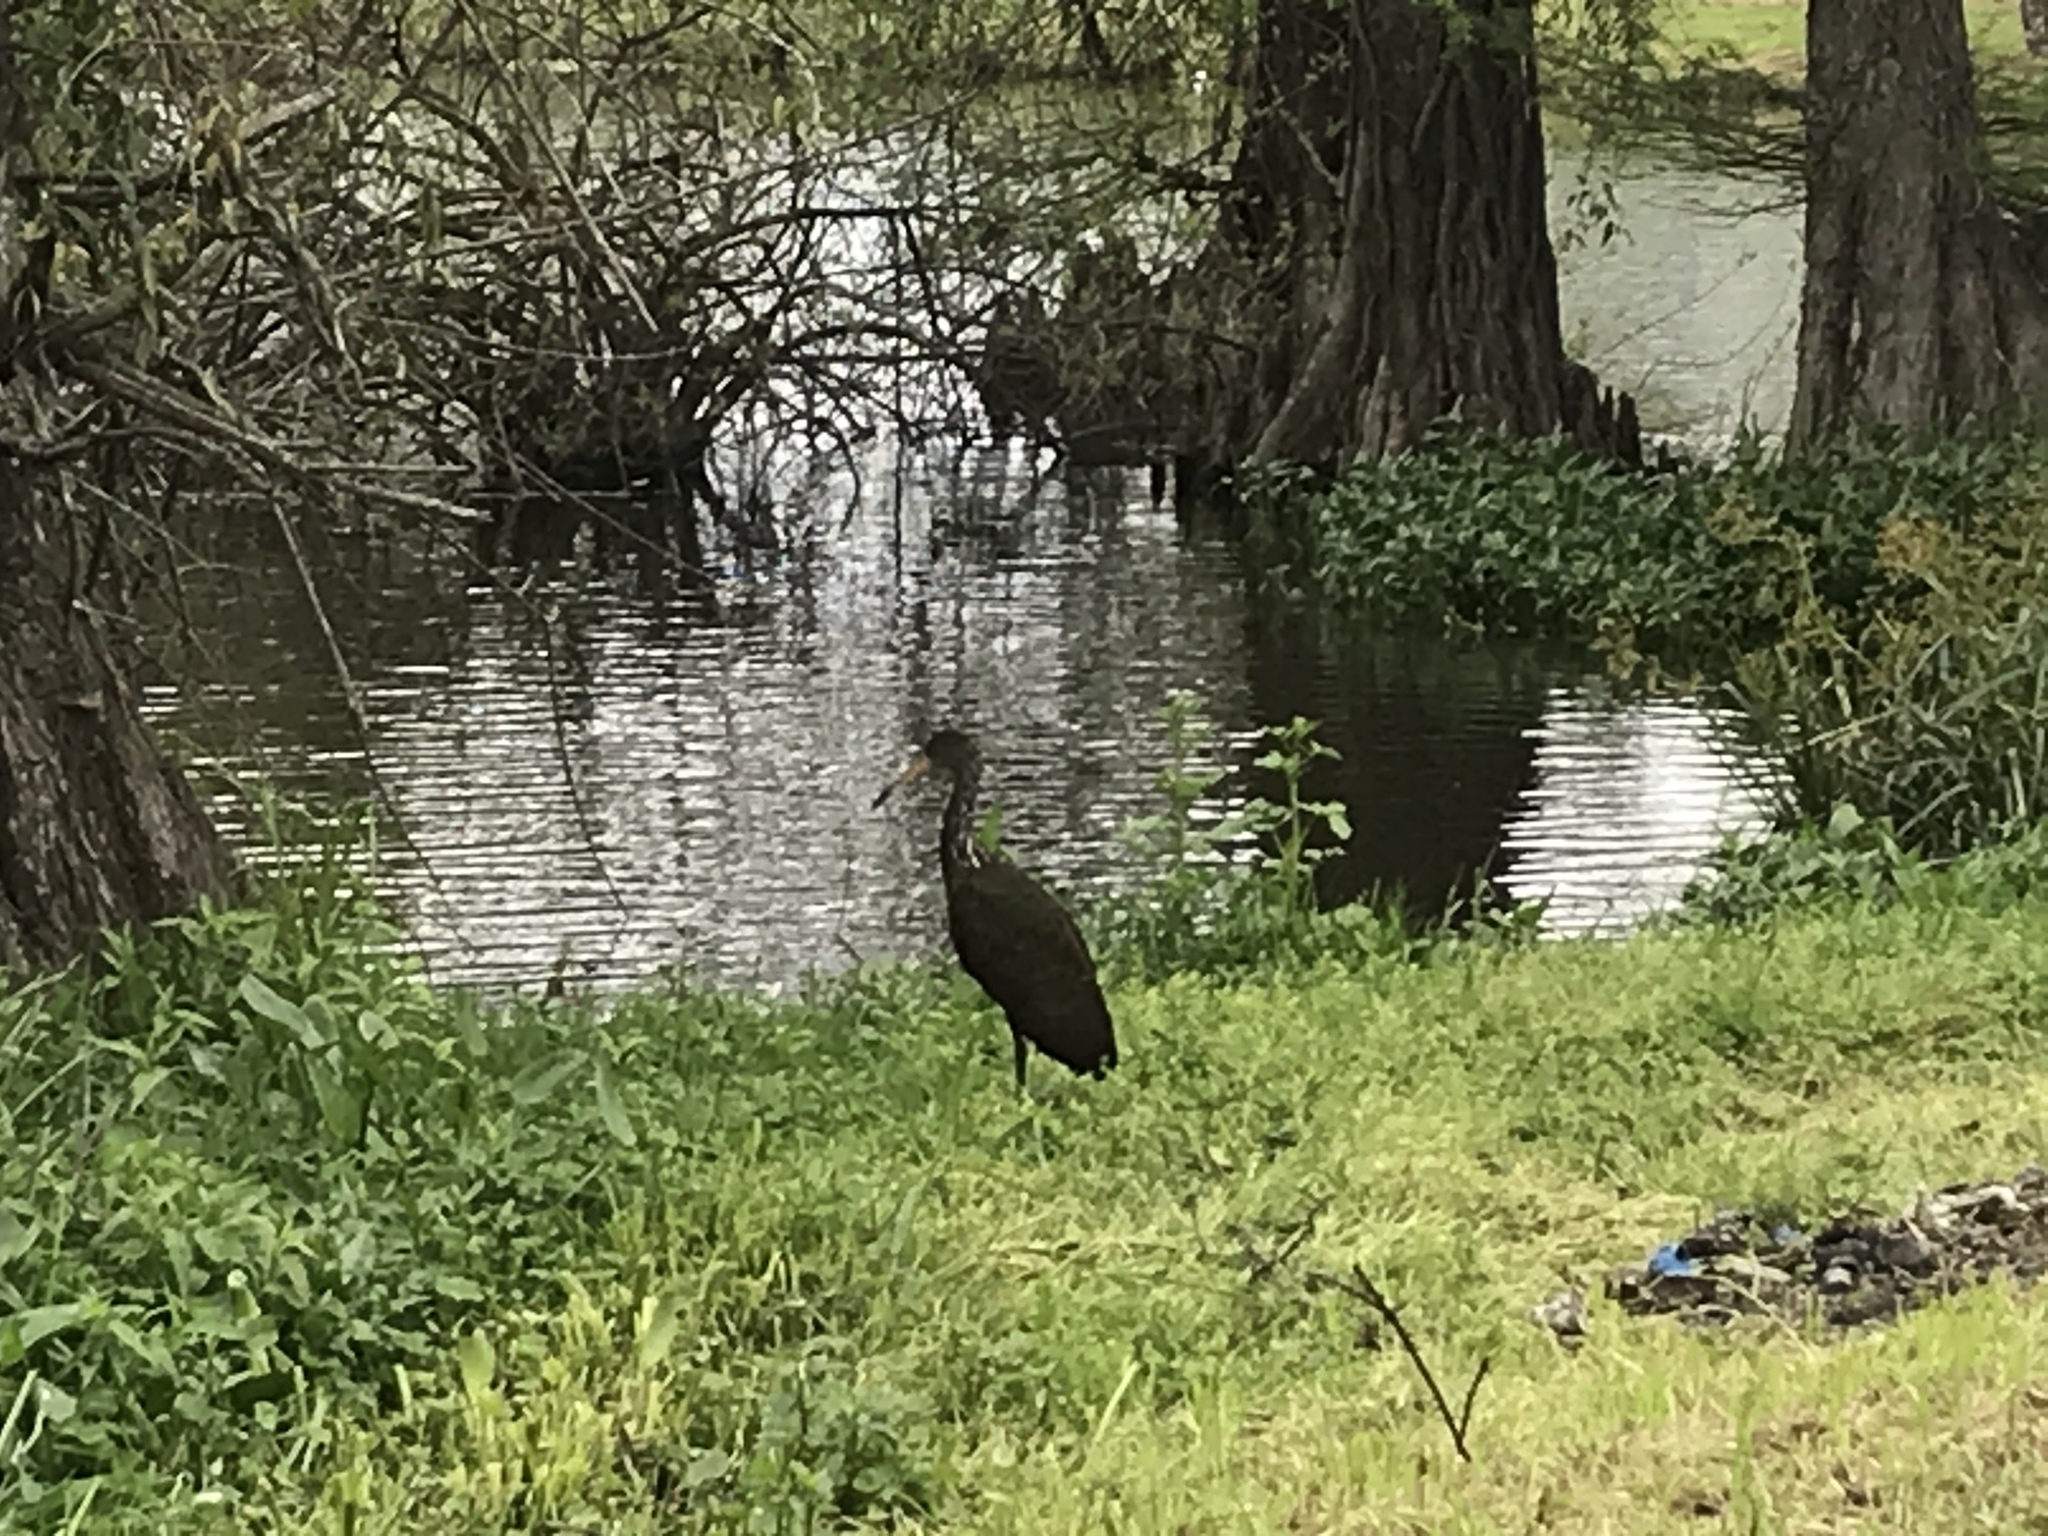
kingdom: Animalia
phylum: Chordata
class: Aves
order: Gruiformes
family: Aramidae
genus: Aramus
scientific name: Aramus guarauna
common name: Limpkin
